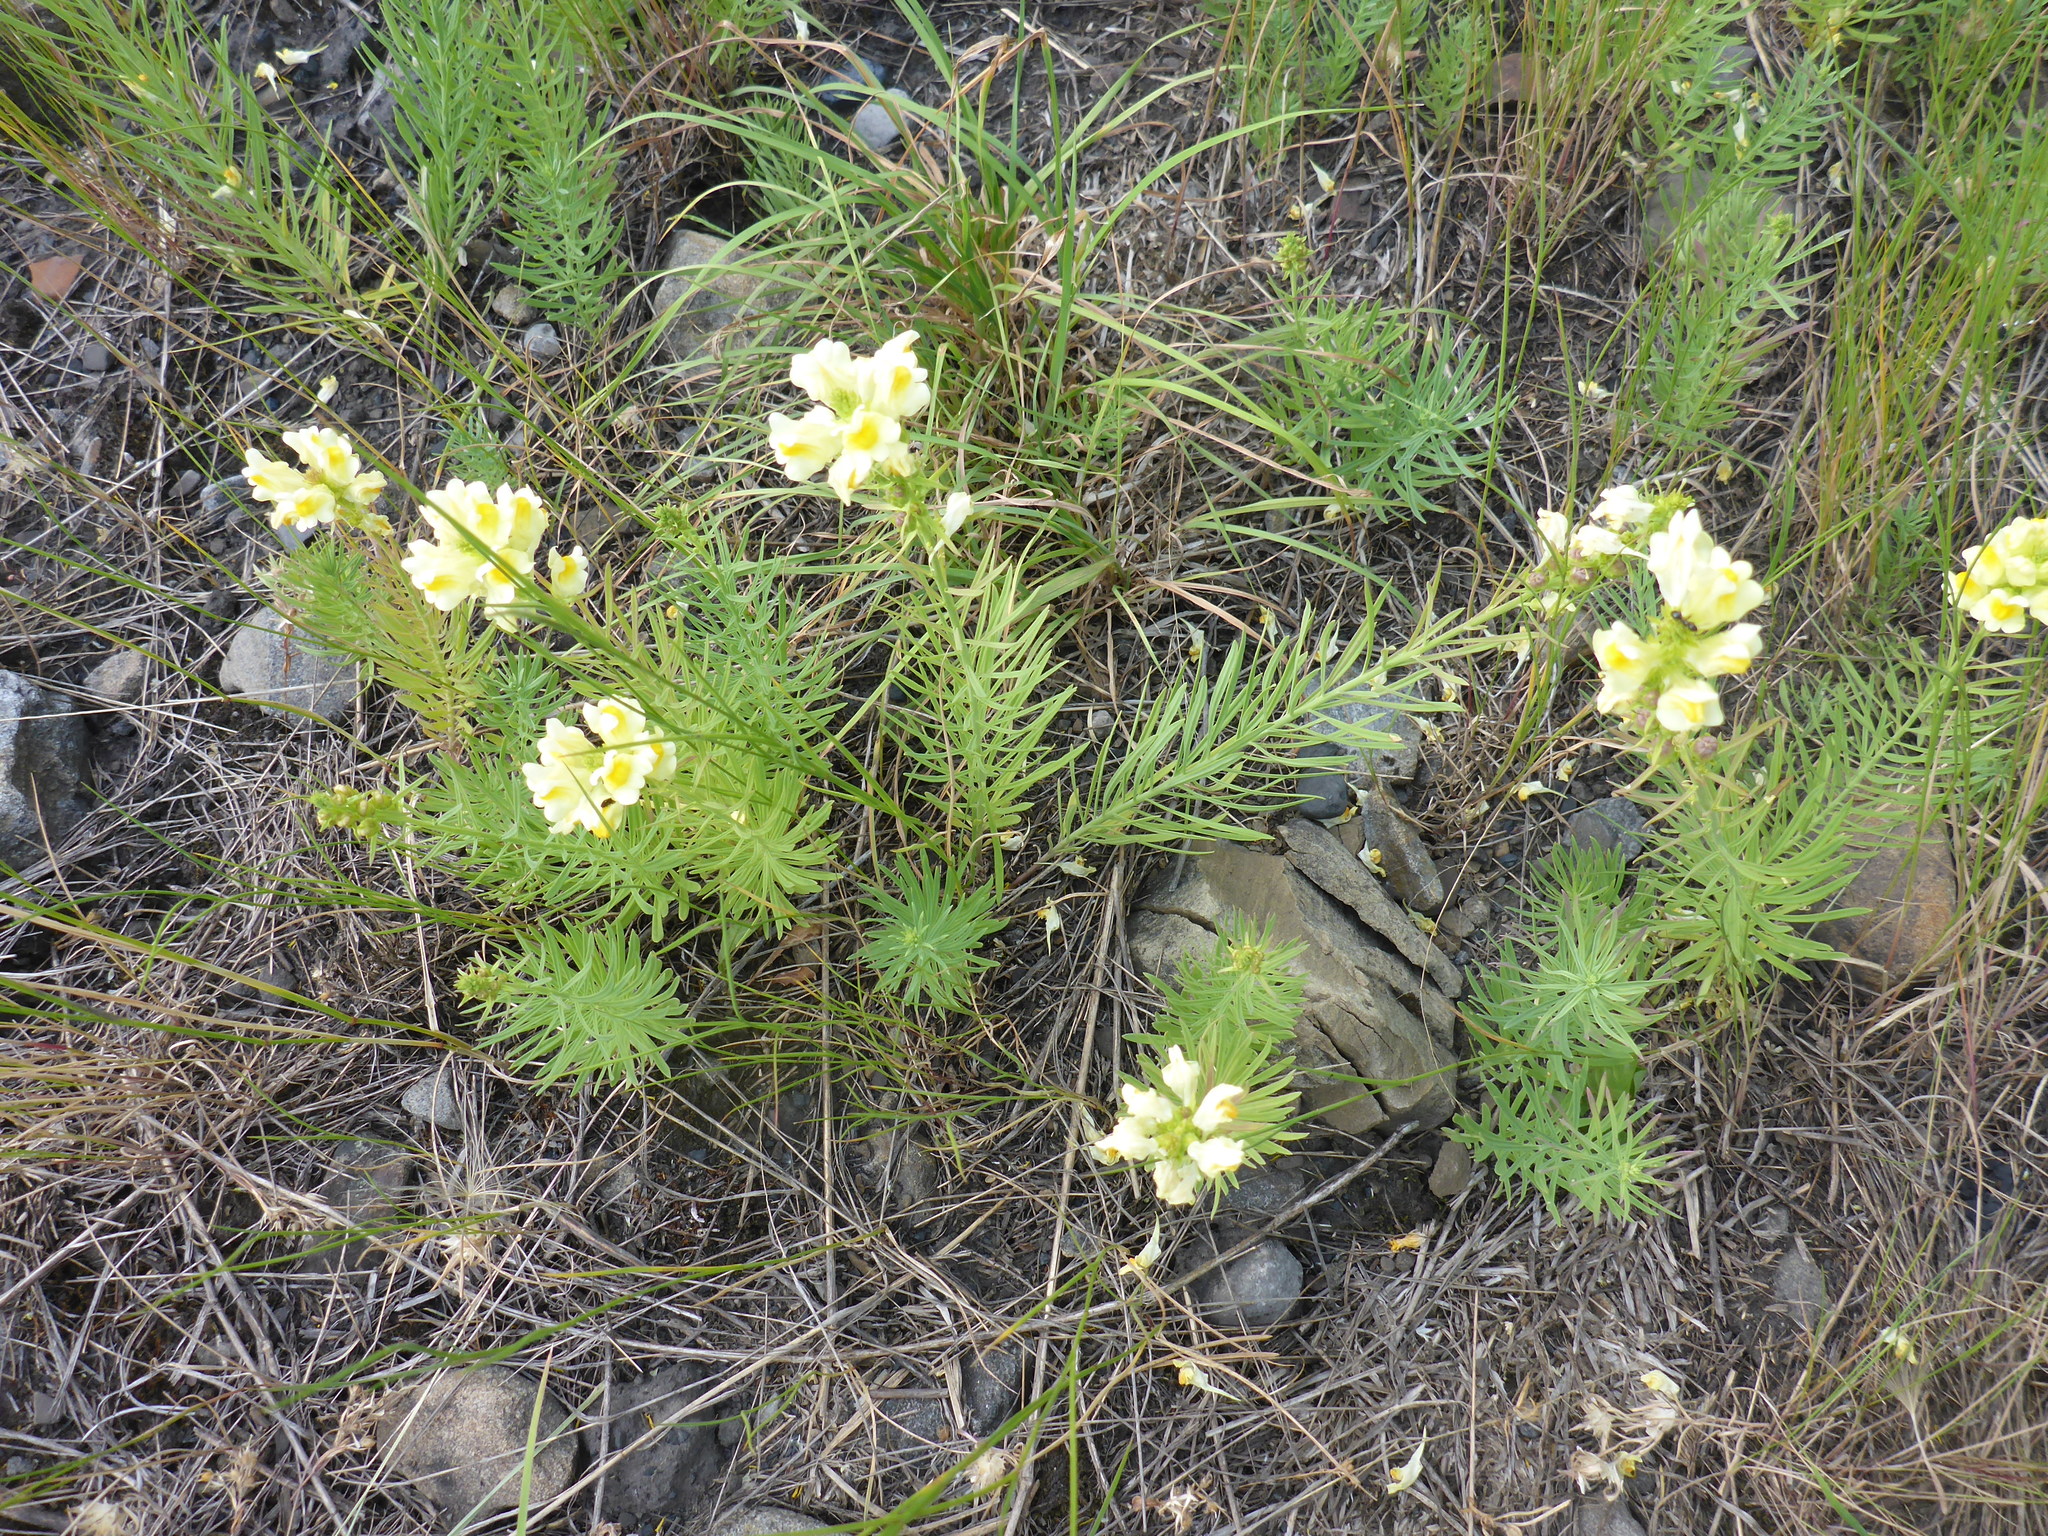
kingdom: Plantae
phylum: Tracheophyta
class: Magnoliopsida
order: Lamiales
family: Plantaginaceae
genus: Linaria
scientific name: Linaria vulgaris
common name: Butter and eggs
